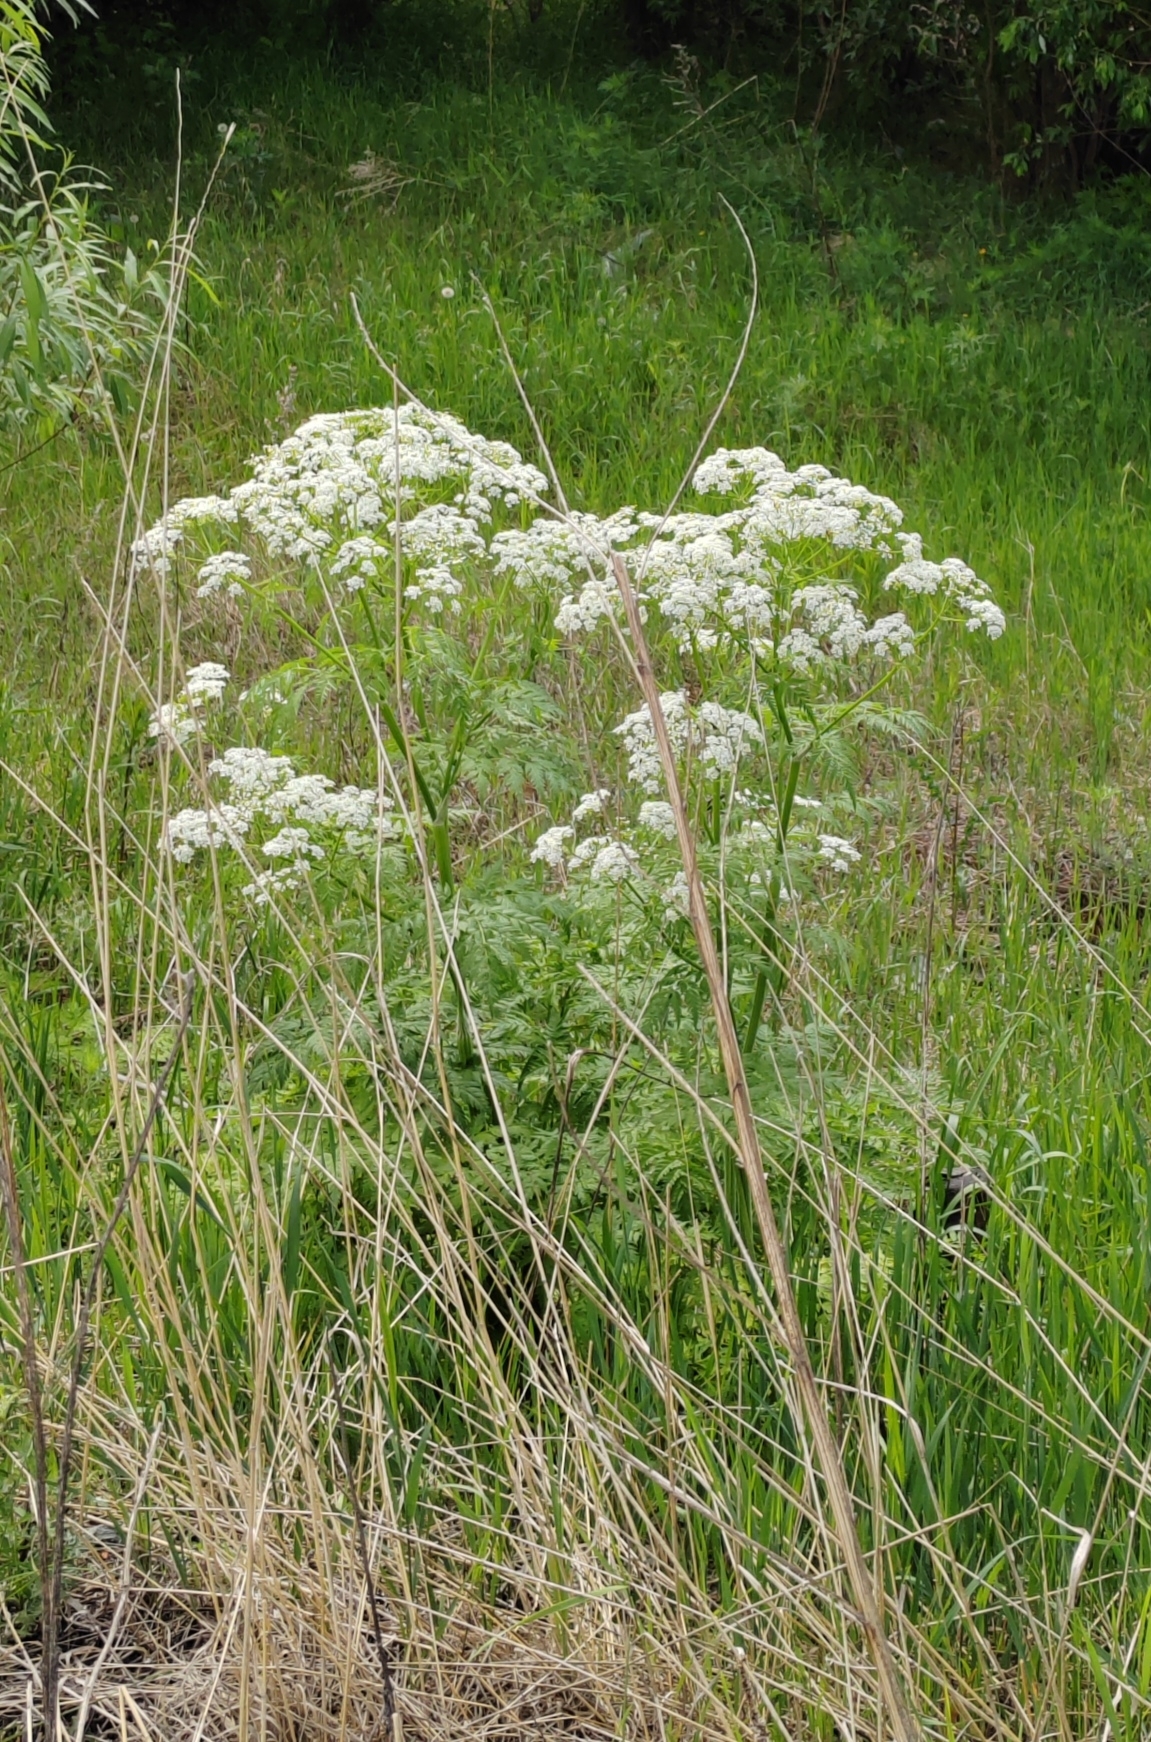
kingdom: Plantae
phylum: Tracheophyta
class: Magnoliopsida
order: Apiales
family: Apiaceae
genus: Anthriscus
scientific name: Anthriscus sylvestris
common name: Cow parsley
